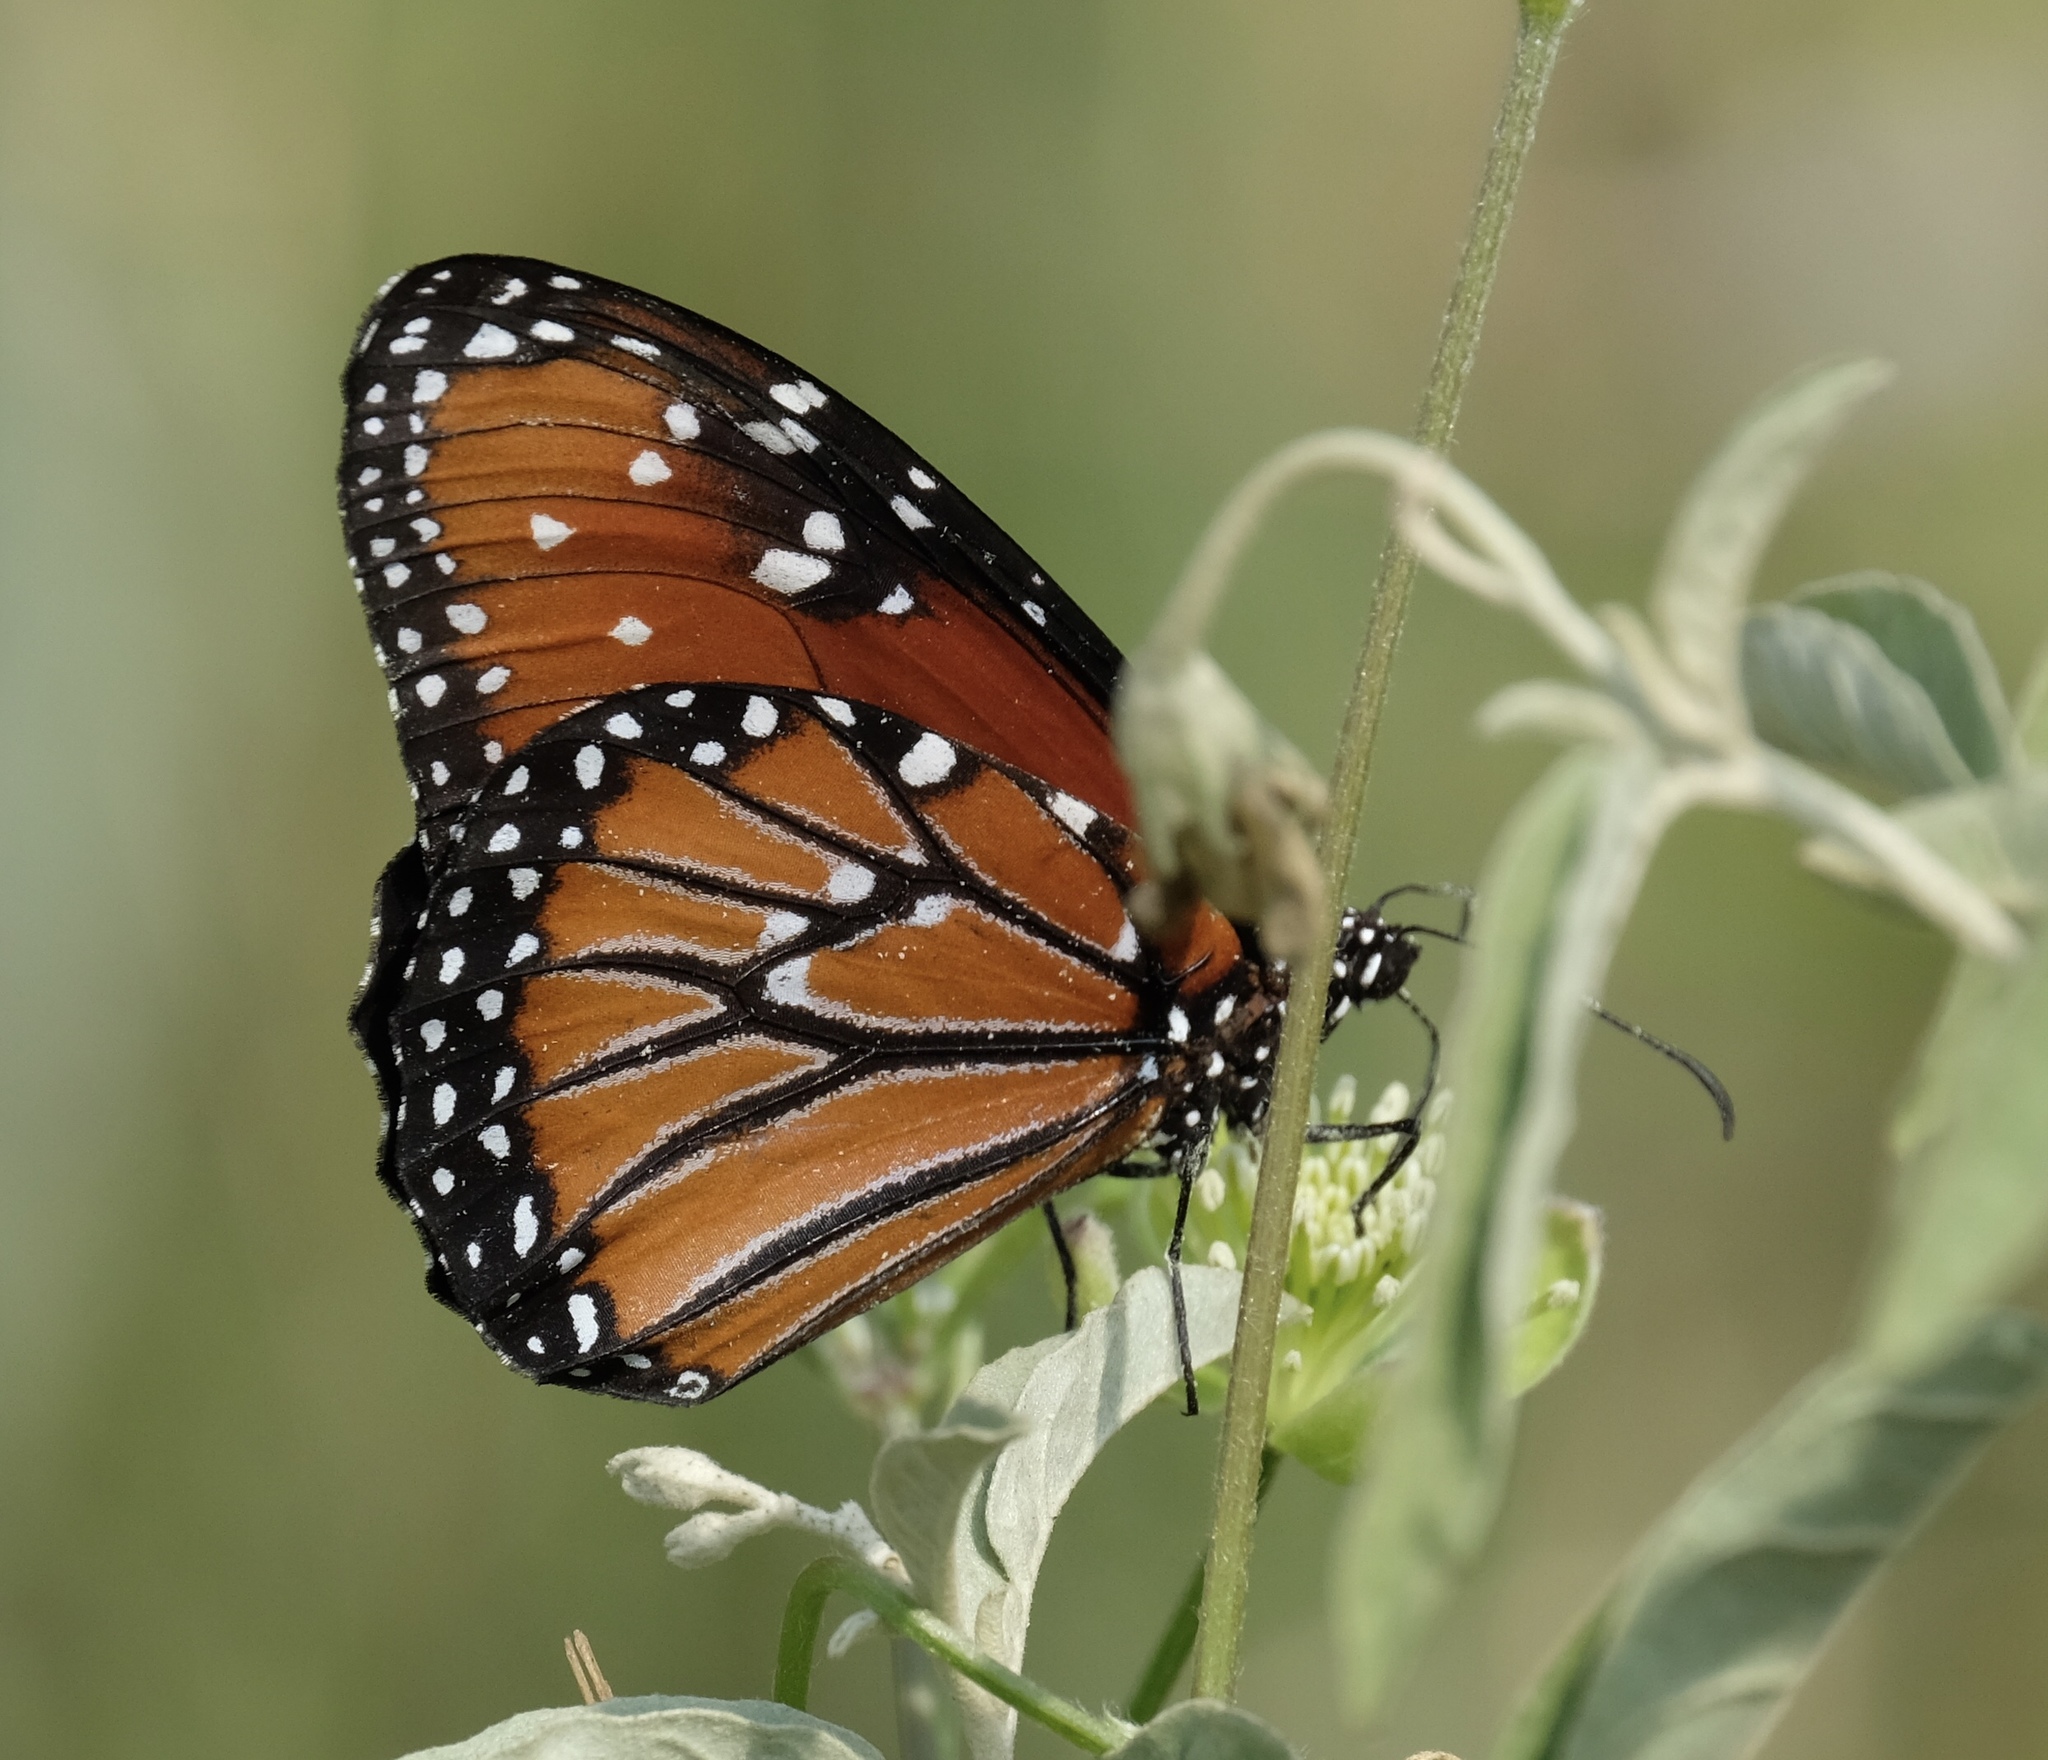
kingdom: Animalia
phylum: Arthropoda
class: Insecta
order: Lepidoptera
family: Nymphalidae
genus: Danaus
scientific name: Danaus gilippus
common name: Queen
